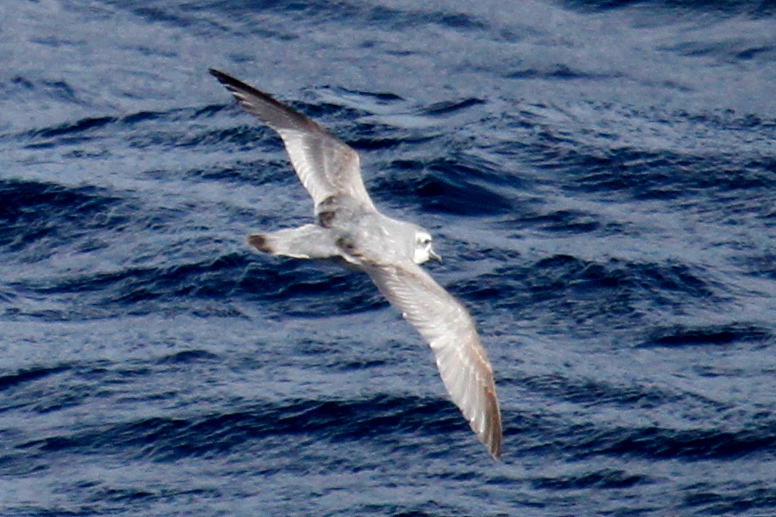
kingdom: Animalia
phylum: Chordata
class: Aves
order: Procellariiformes
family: Procellariidae
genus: Pachyptila
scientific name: Pachyptila belcheri
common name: Slender-billed prion
